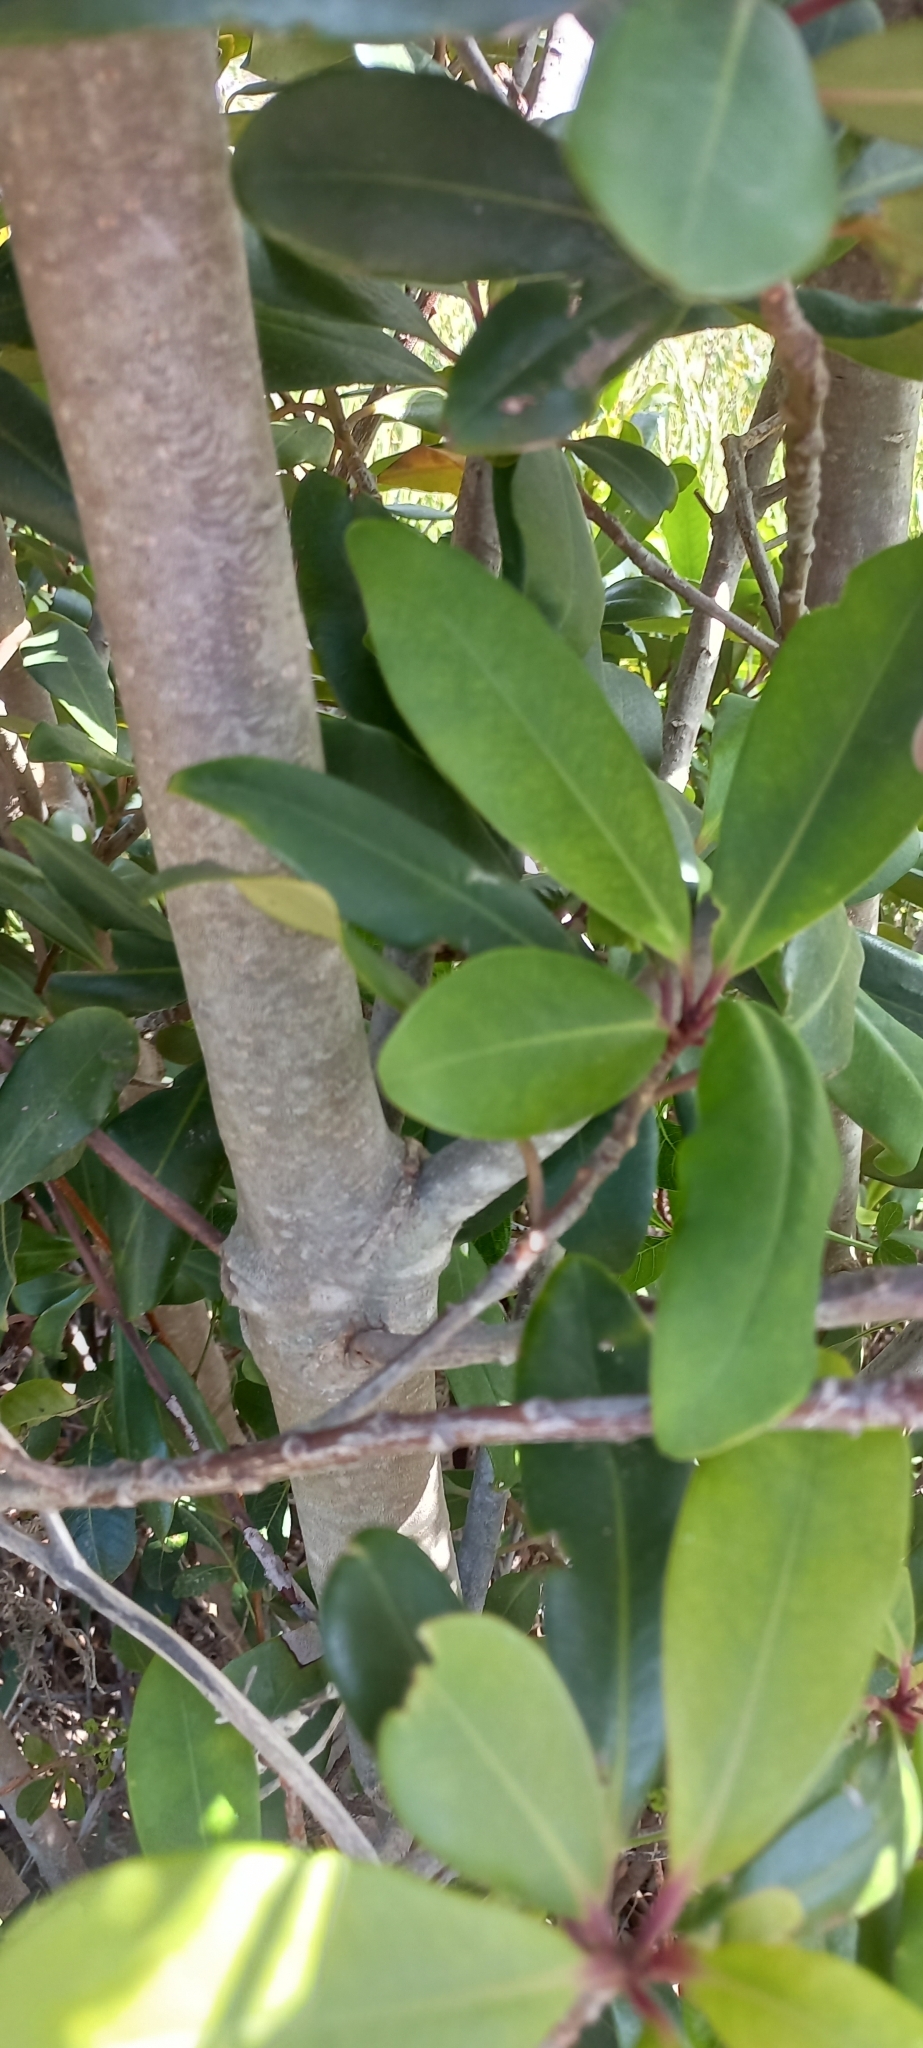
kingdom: Plantae
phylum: Tracheophyta
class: Magnoliopsida
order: Ericales
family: Primulaceae
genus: Myrsine
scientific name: Myrsine melanophloeos
